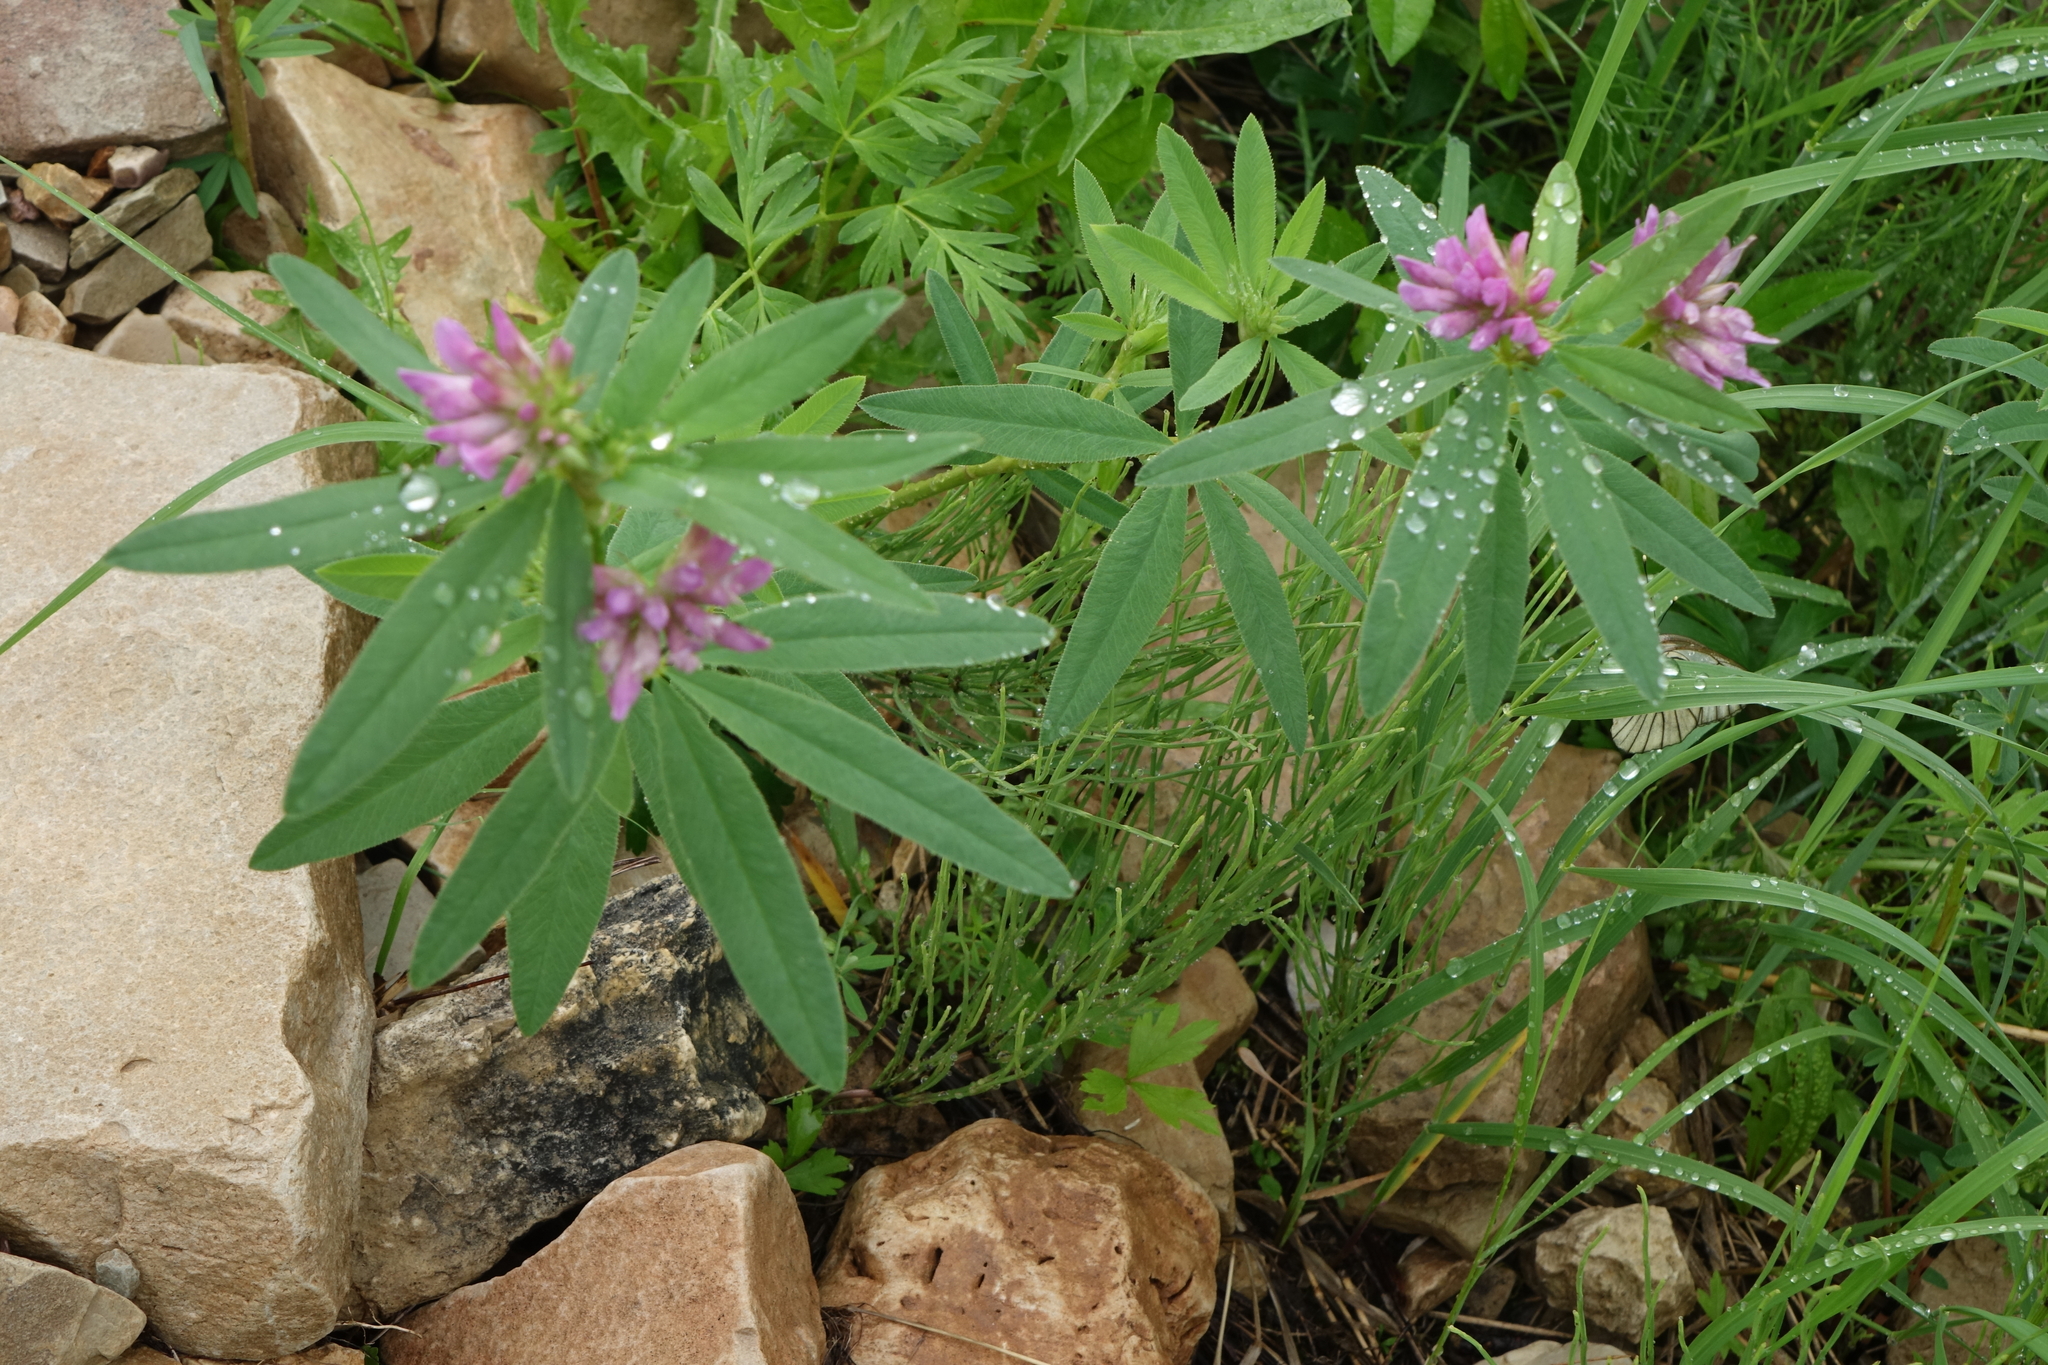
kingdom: Plantae
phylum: Tracheophyta
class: Magnoliopsida
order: Fabales
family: Fabaceae
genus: Trifolium
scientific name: Trifolium lupinaster
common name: Lupine clover
